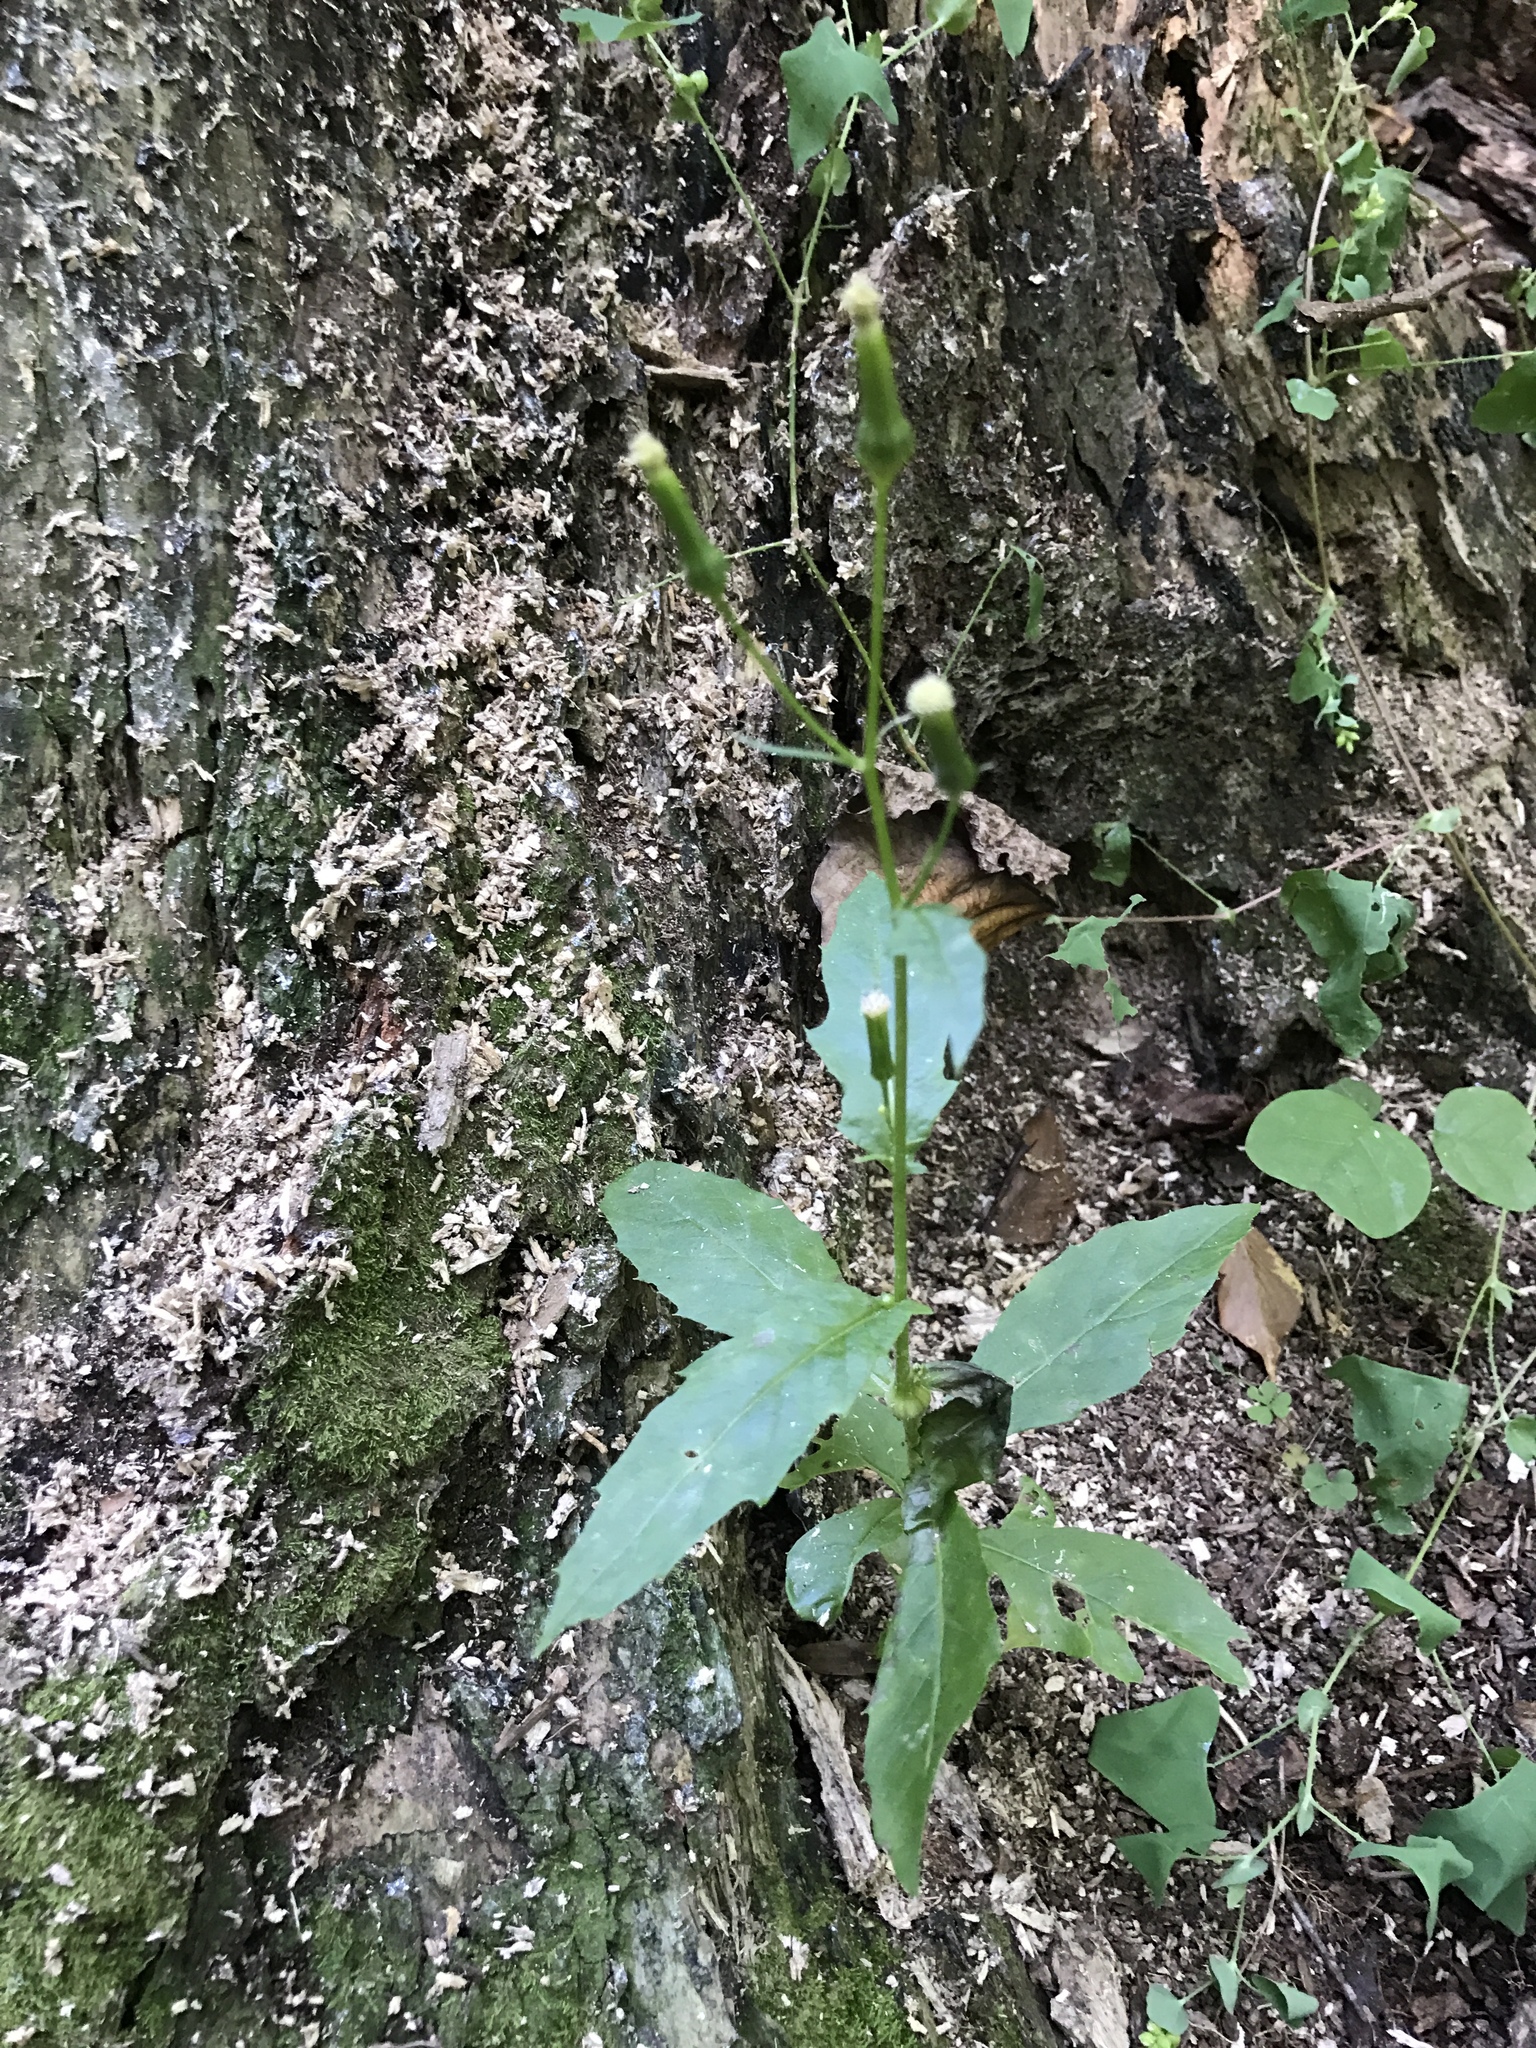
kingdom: Plantae
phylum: Tracheophyta
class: Magnoliopsida
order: Asterales
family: Asteraceae
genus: Erechtites
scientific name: Erechtites hieraciifolius
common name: American burnweed
